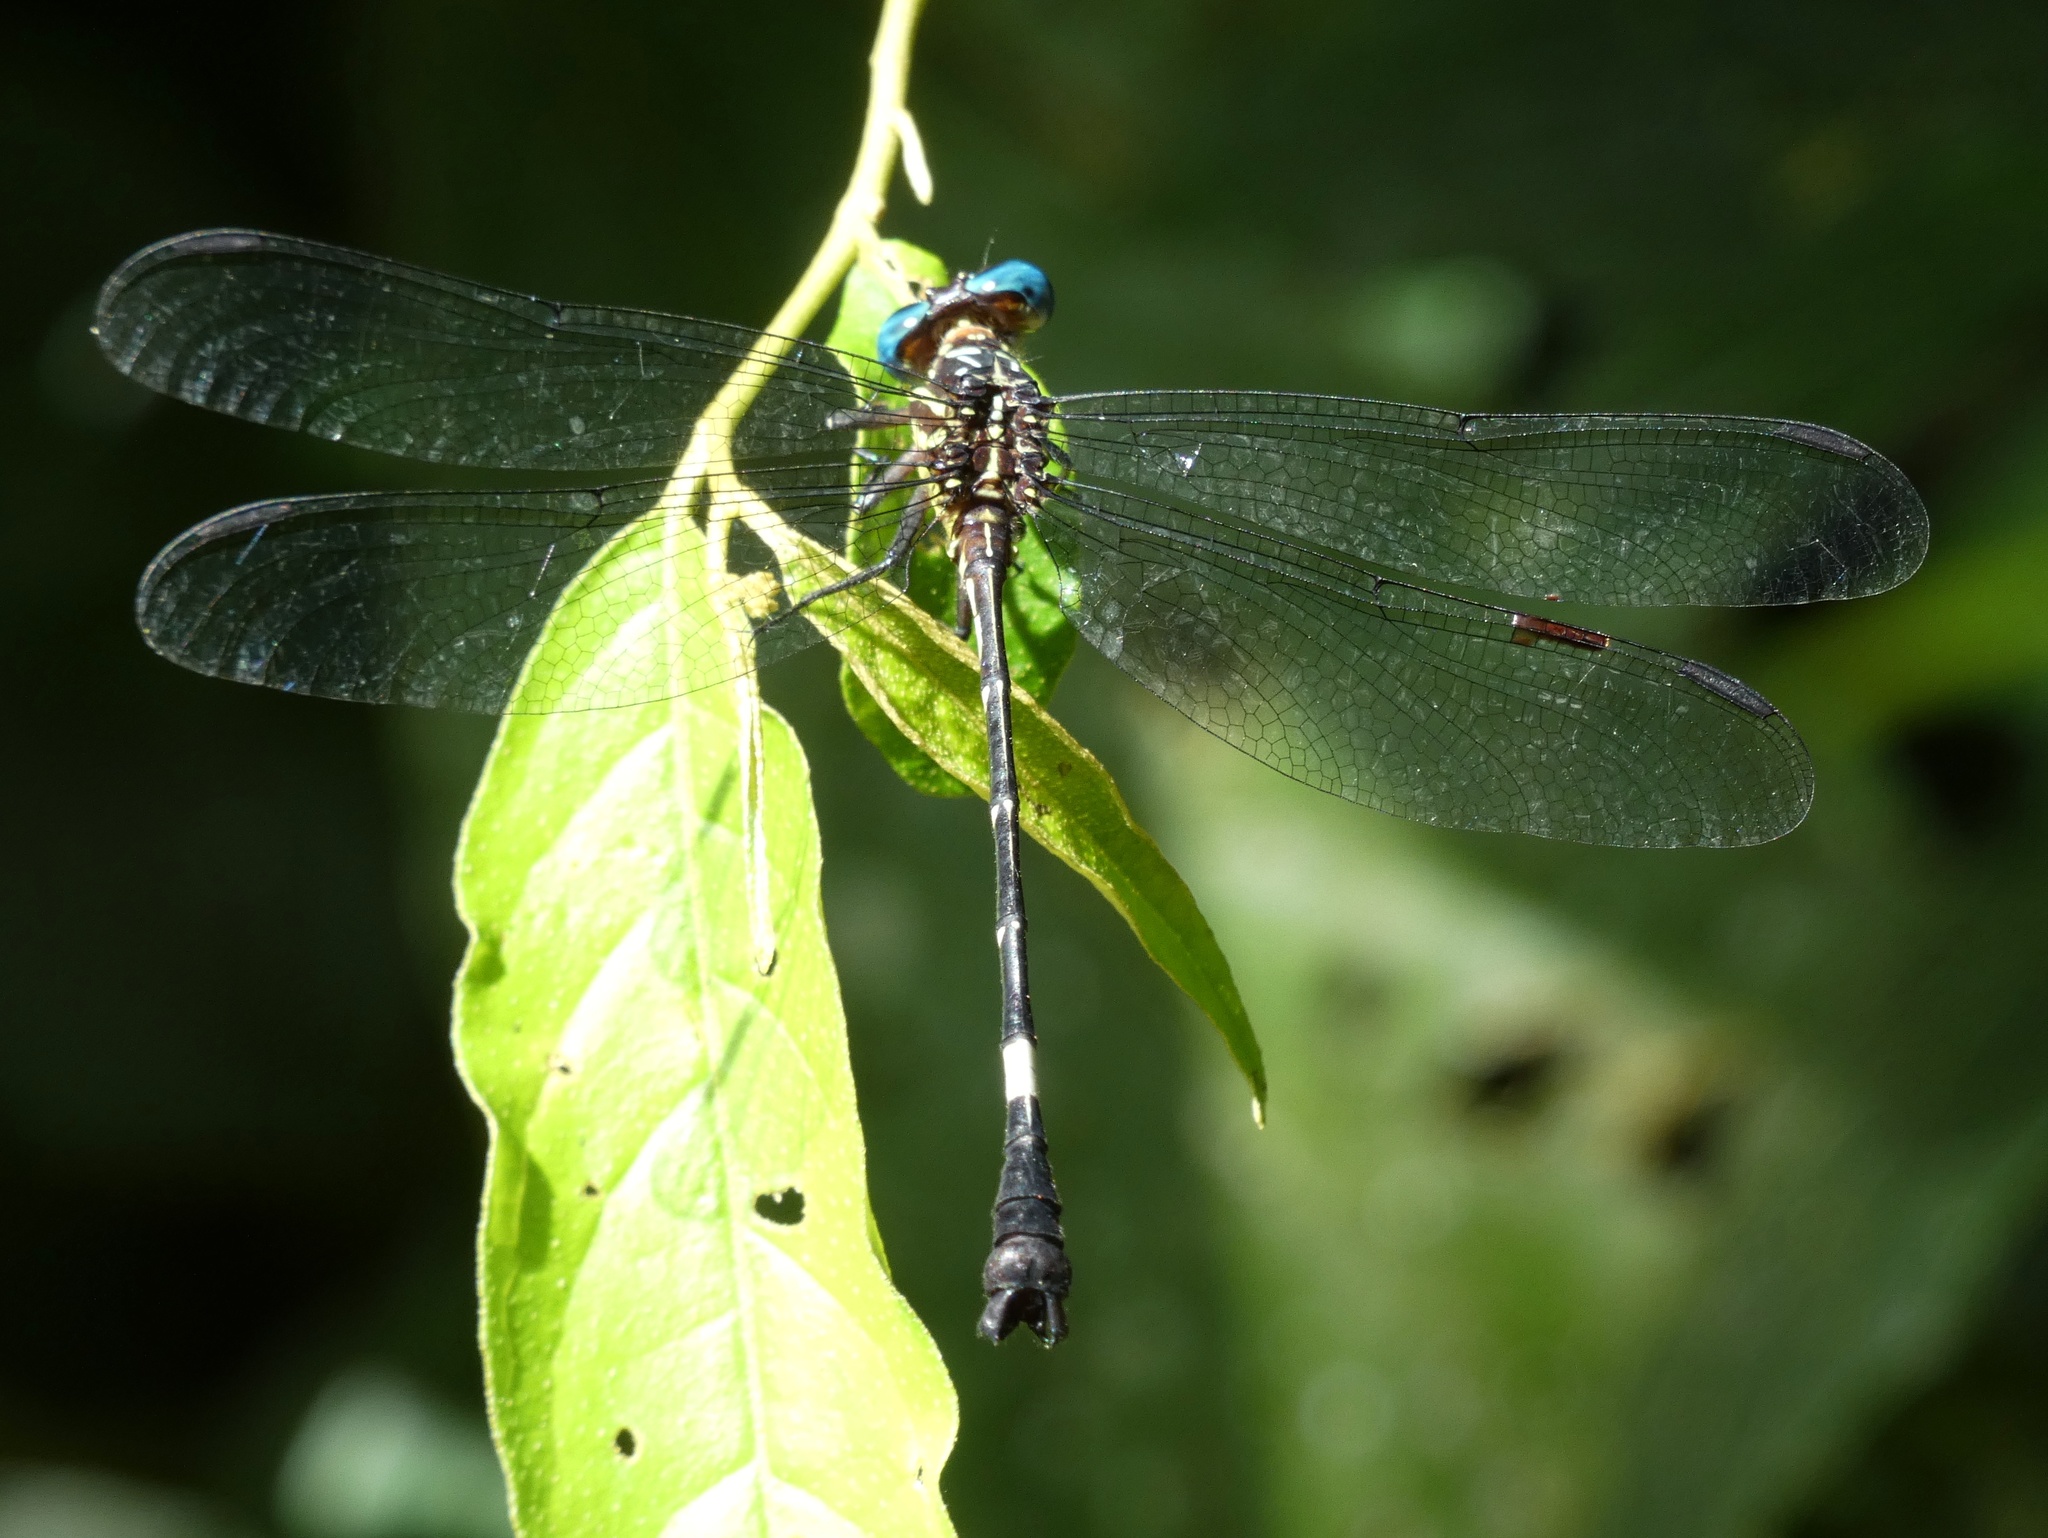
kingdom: Animalia
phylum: Arthropoda
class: Insecta
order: Odonata
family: Gomphidae
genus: Epigomphus
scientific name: Epigomphus quadracies
